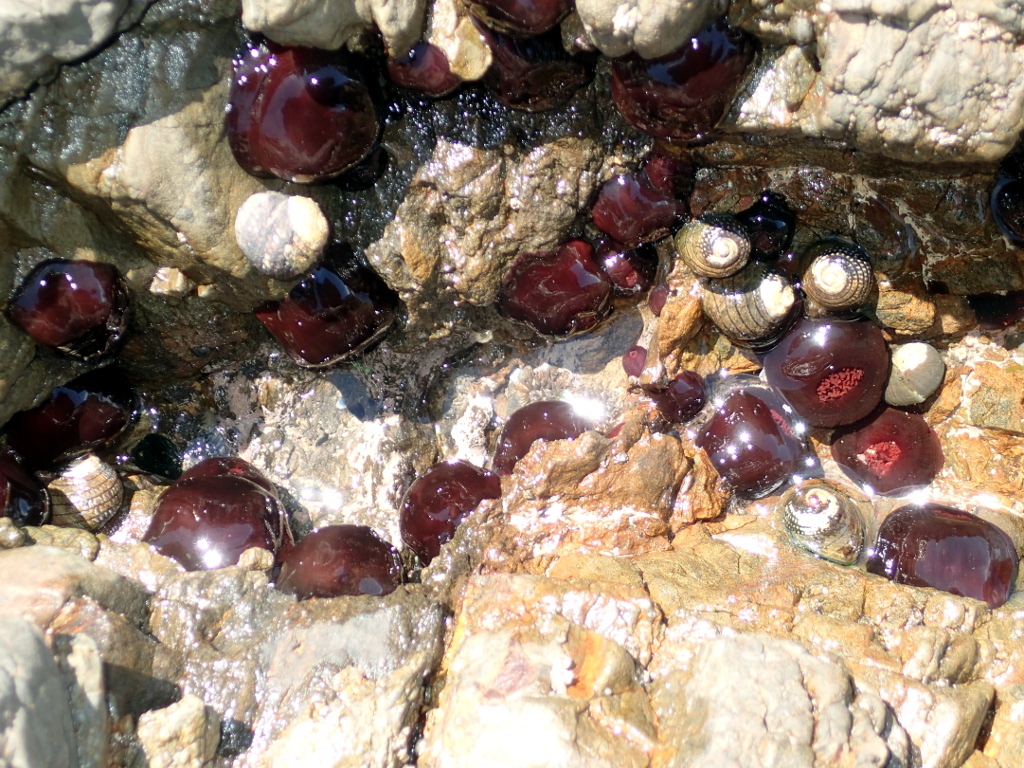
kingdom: Animalia
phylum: Cnidaria
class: Anthozoa
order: Actiniaria
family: Actiniidae
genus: Actinia
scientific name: Actinia tenebrosa
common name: Waratah anemone
